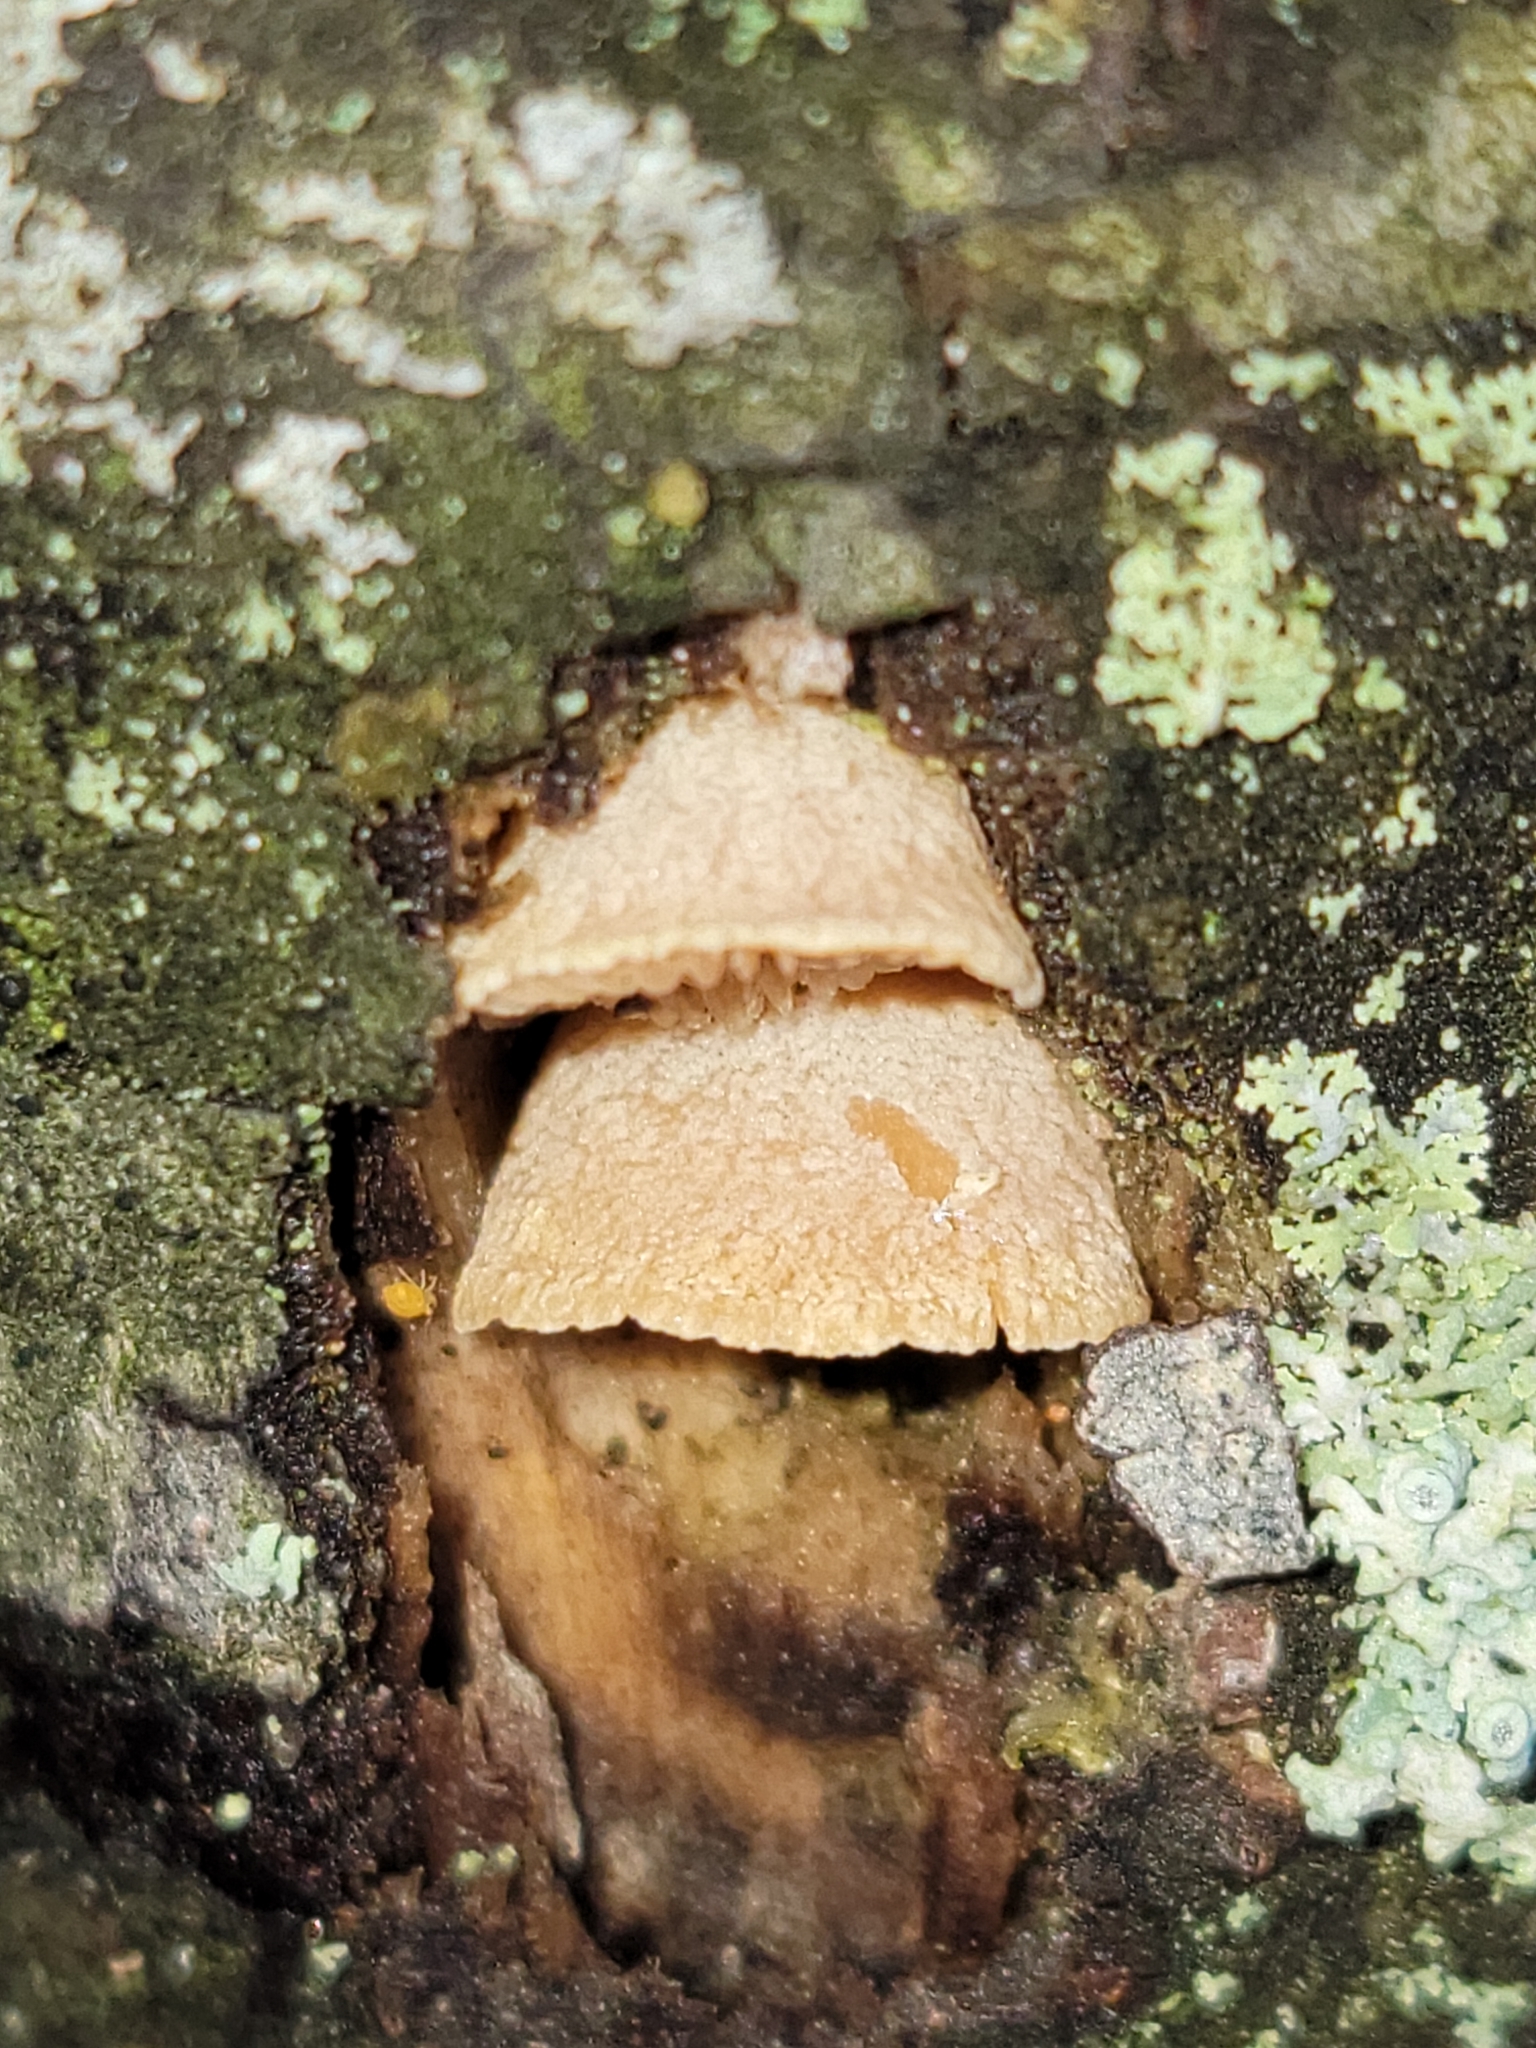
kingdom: Fungi
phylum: Basidiomycota
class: Agaricomycetes
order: Agaricales
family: Mycenaceae
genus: Panellus
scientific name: Panellus stipticus
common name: Bitter oysterling
